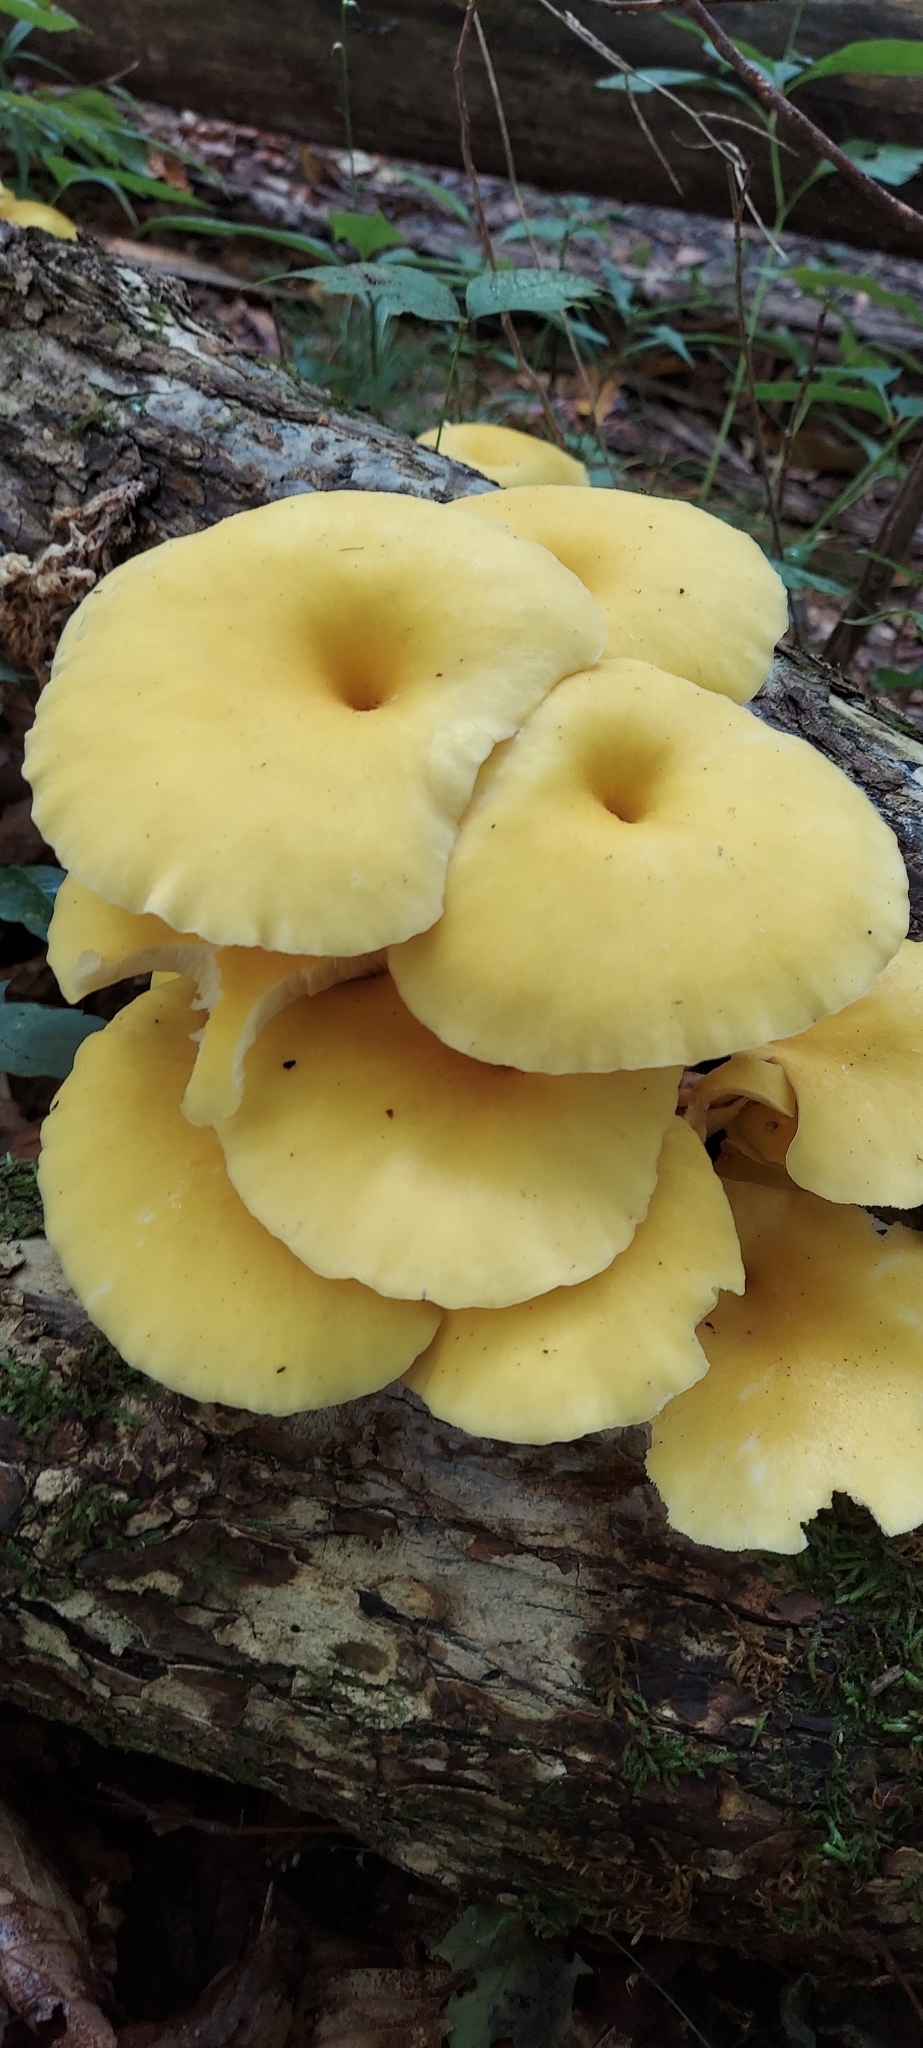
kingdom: Fungi
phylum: Basidiomycota
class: Agaricomycetes
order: Agaricales
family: Pleurotaceae
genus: Pleurotus
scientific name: Pleurotus citrinopileatus
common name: Golden oyster mushroom
